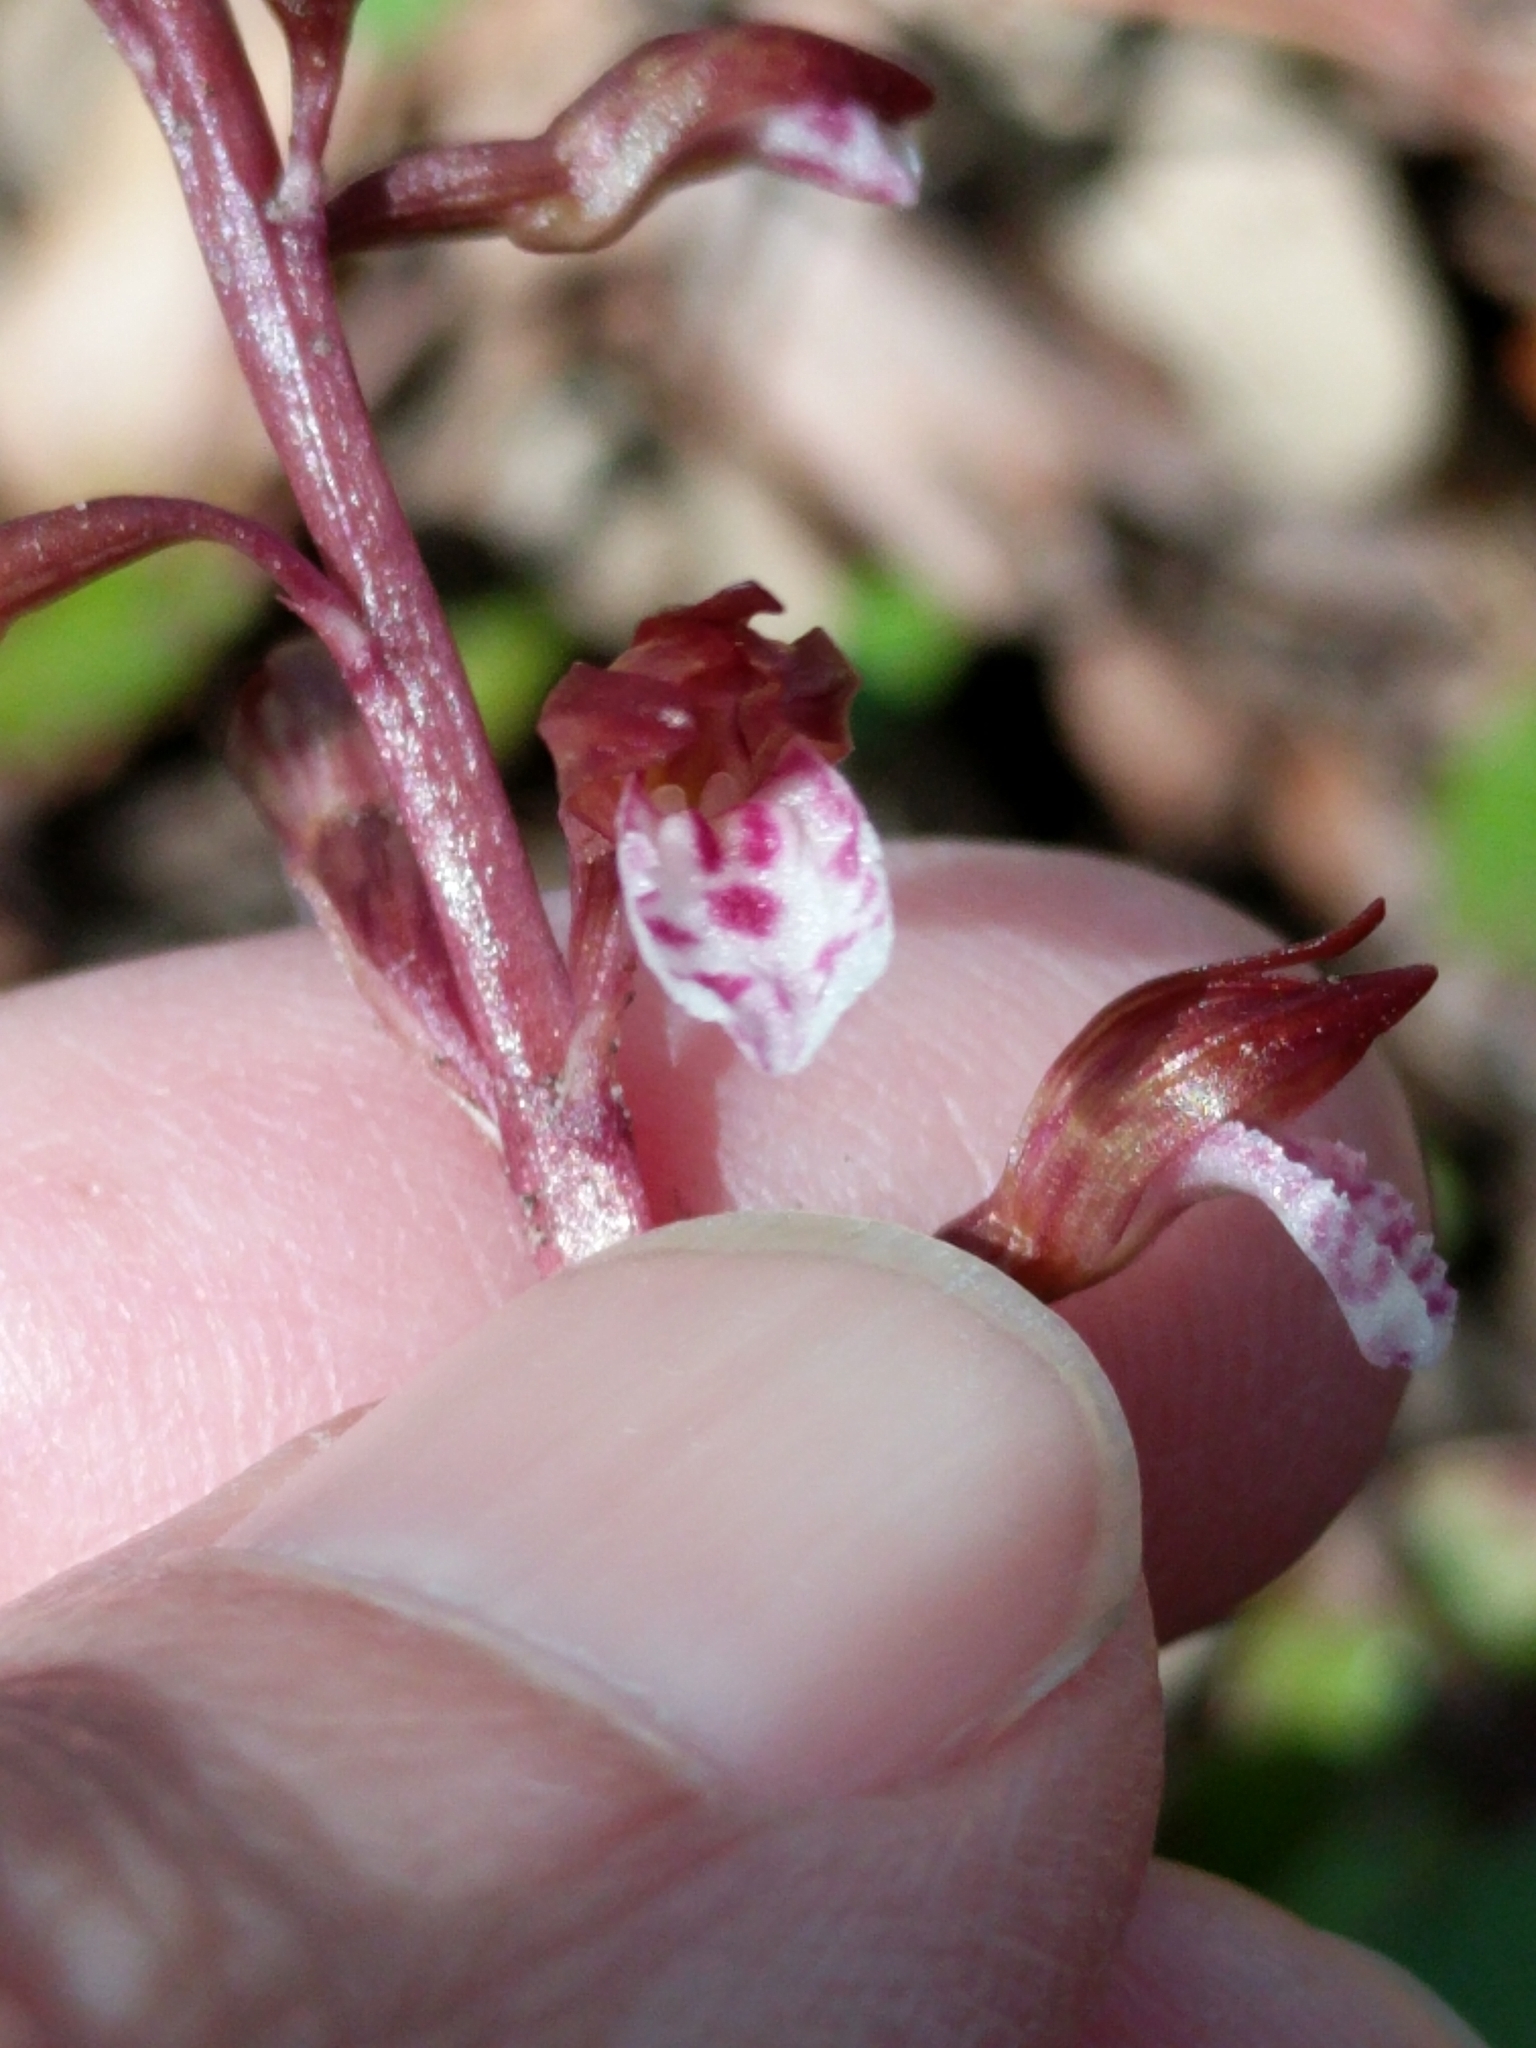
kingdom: Plantae
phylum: Tracheophyta
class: Liliopsida
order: Asparagales
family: Orchidaceae
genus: Corallorhiza
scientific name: Corallorhiza wisteriana
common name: Spring coralroot
